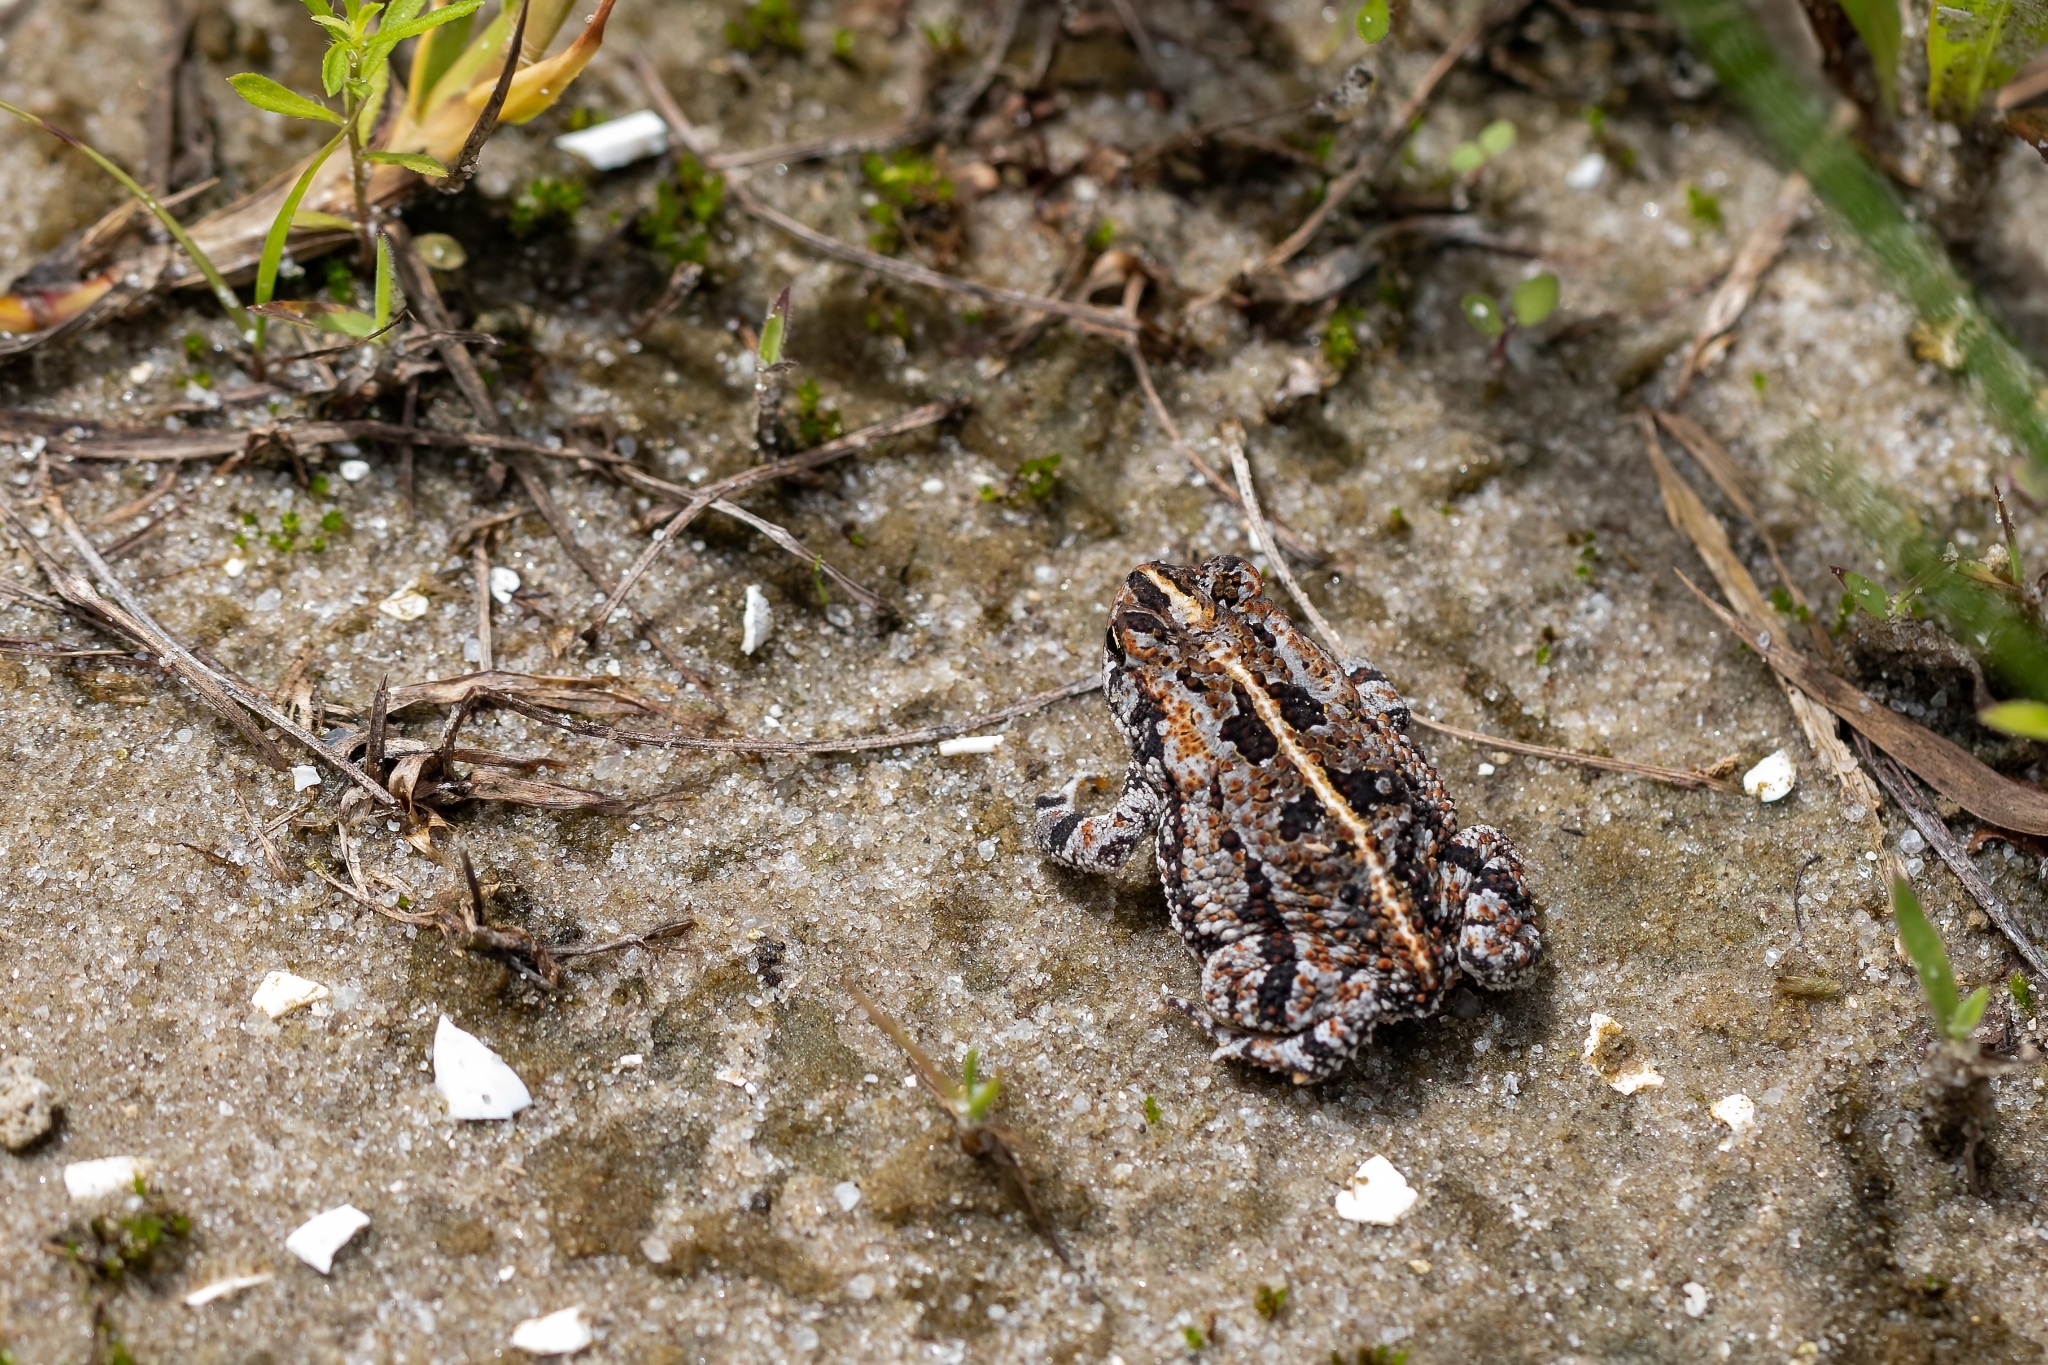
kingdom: Animalia
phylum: Chordata
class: Amphibia
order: Anura
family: Bufonidae
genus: Anaxyrus
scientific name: Anaxyrus quercicus
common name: Oak toad
